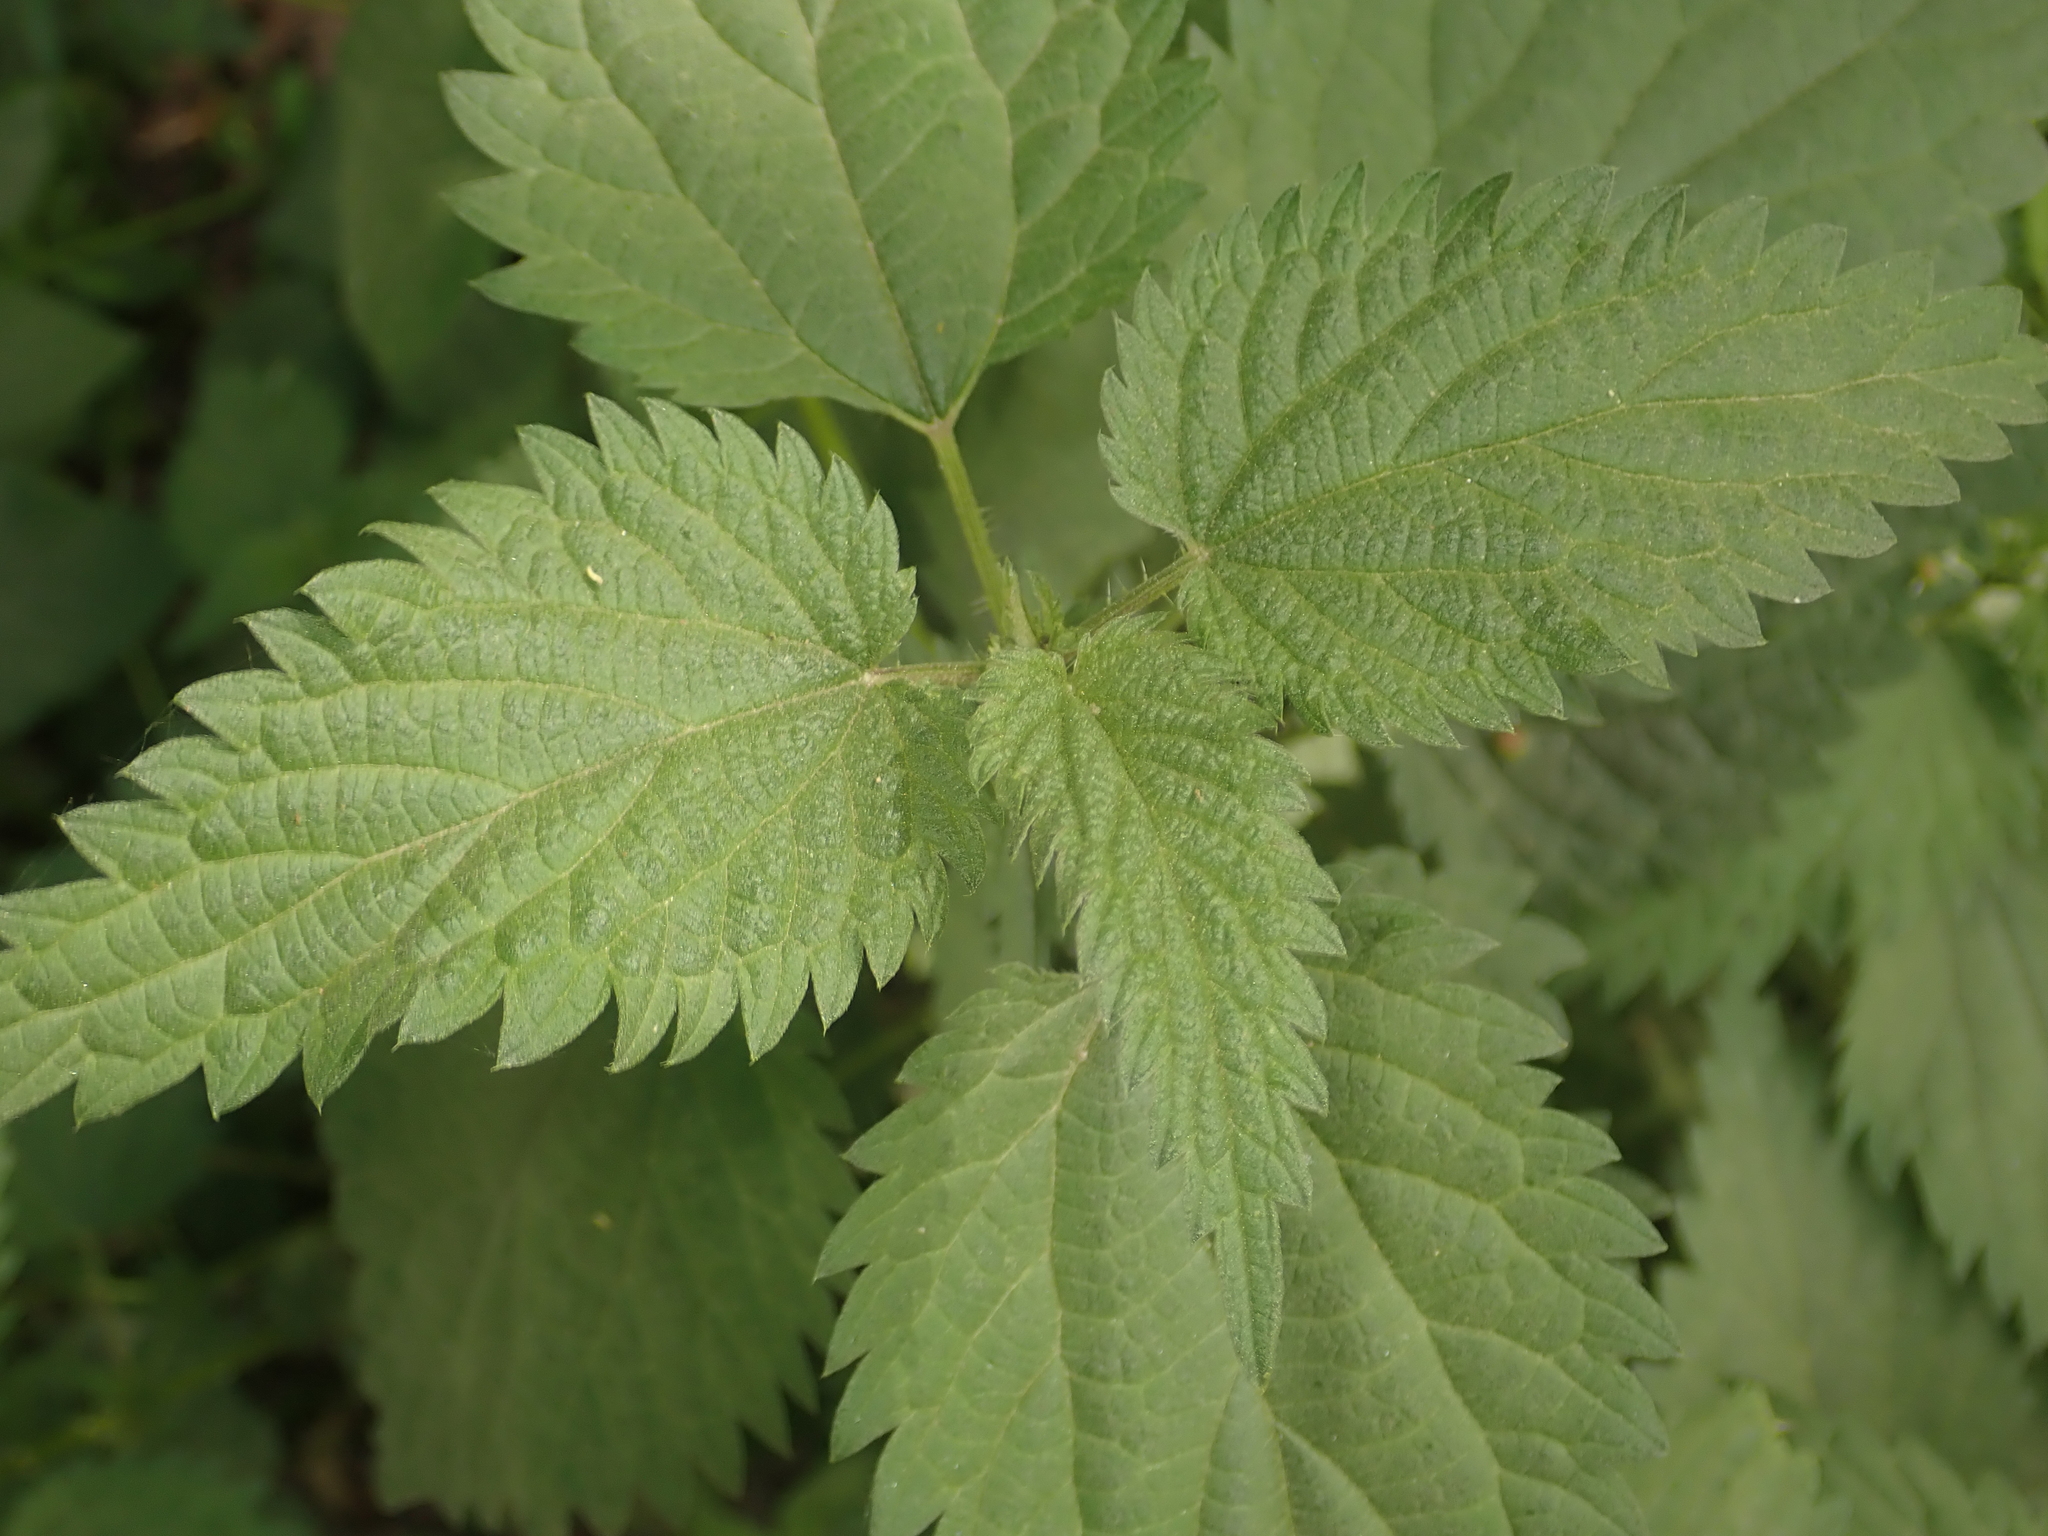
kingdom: Plantae
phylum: Tracheophyta
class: Magnoliopsida
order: Rosales
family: Urticaceae
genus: Urtica
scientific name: Urtica dioica
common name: Common nettle
